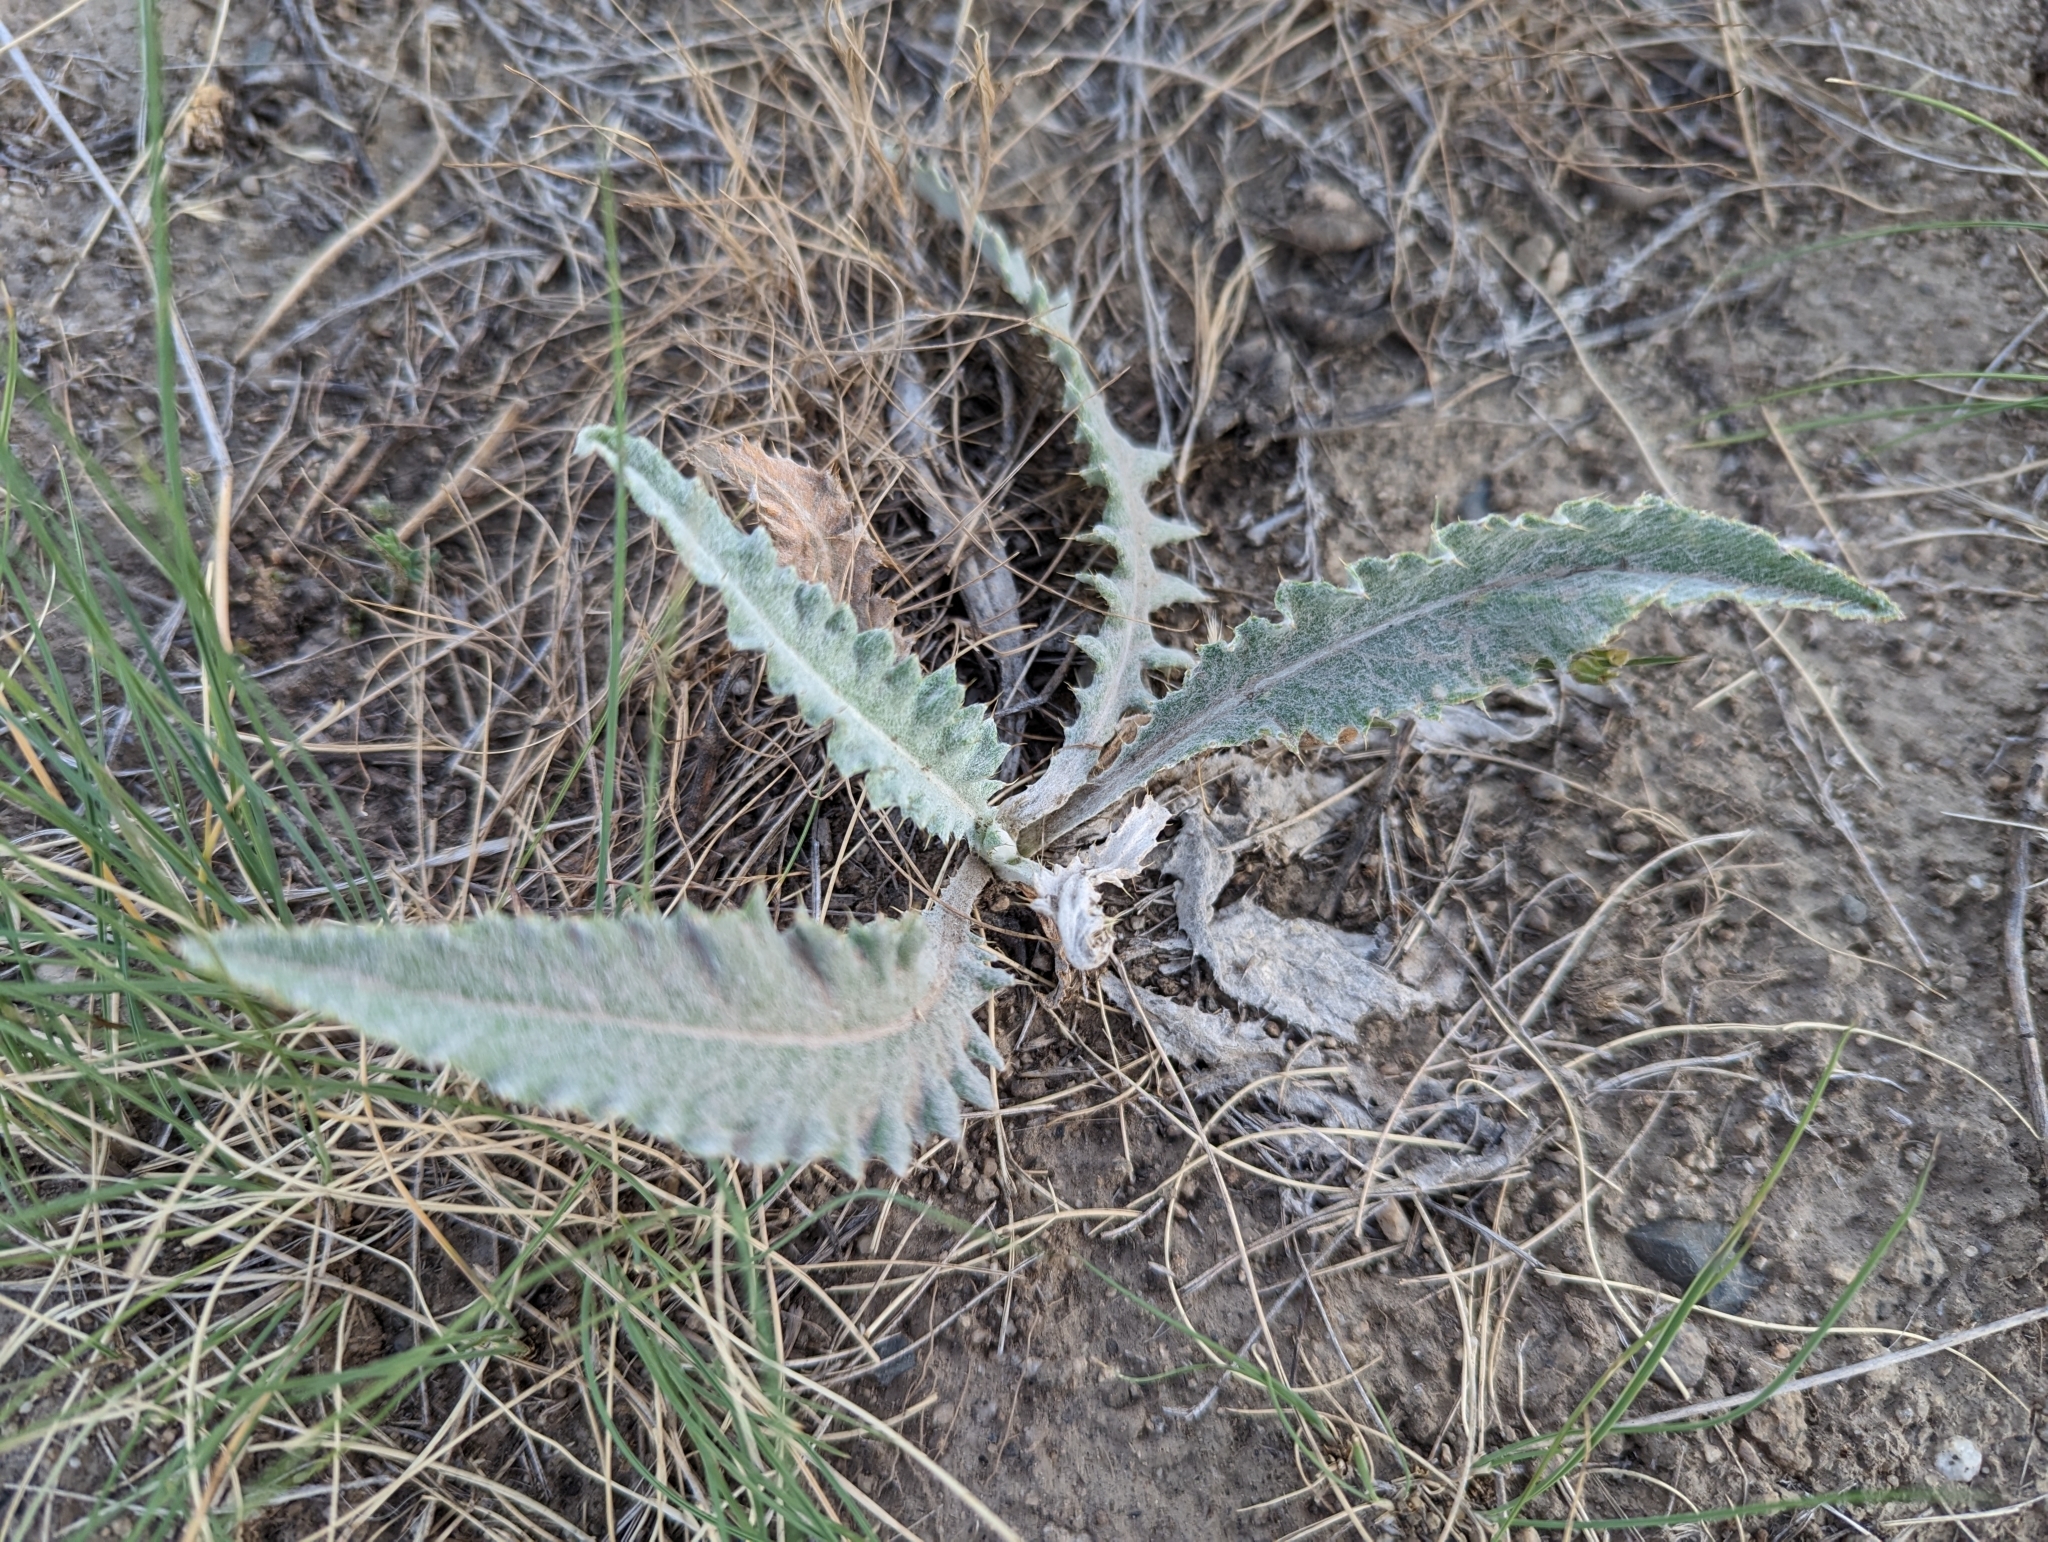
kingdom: Plantae
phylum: Tracheophyta
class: Magnoliopsida
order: Asterales
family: Asteraceae
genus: Cirsium
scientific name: Cirsium undulatum
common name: Pasture thistle
